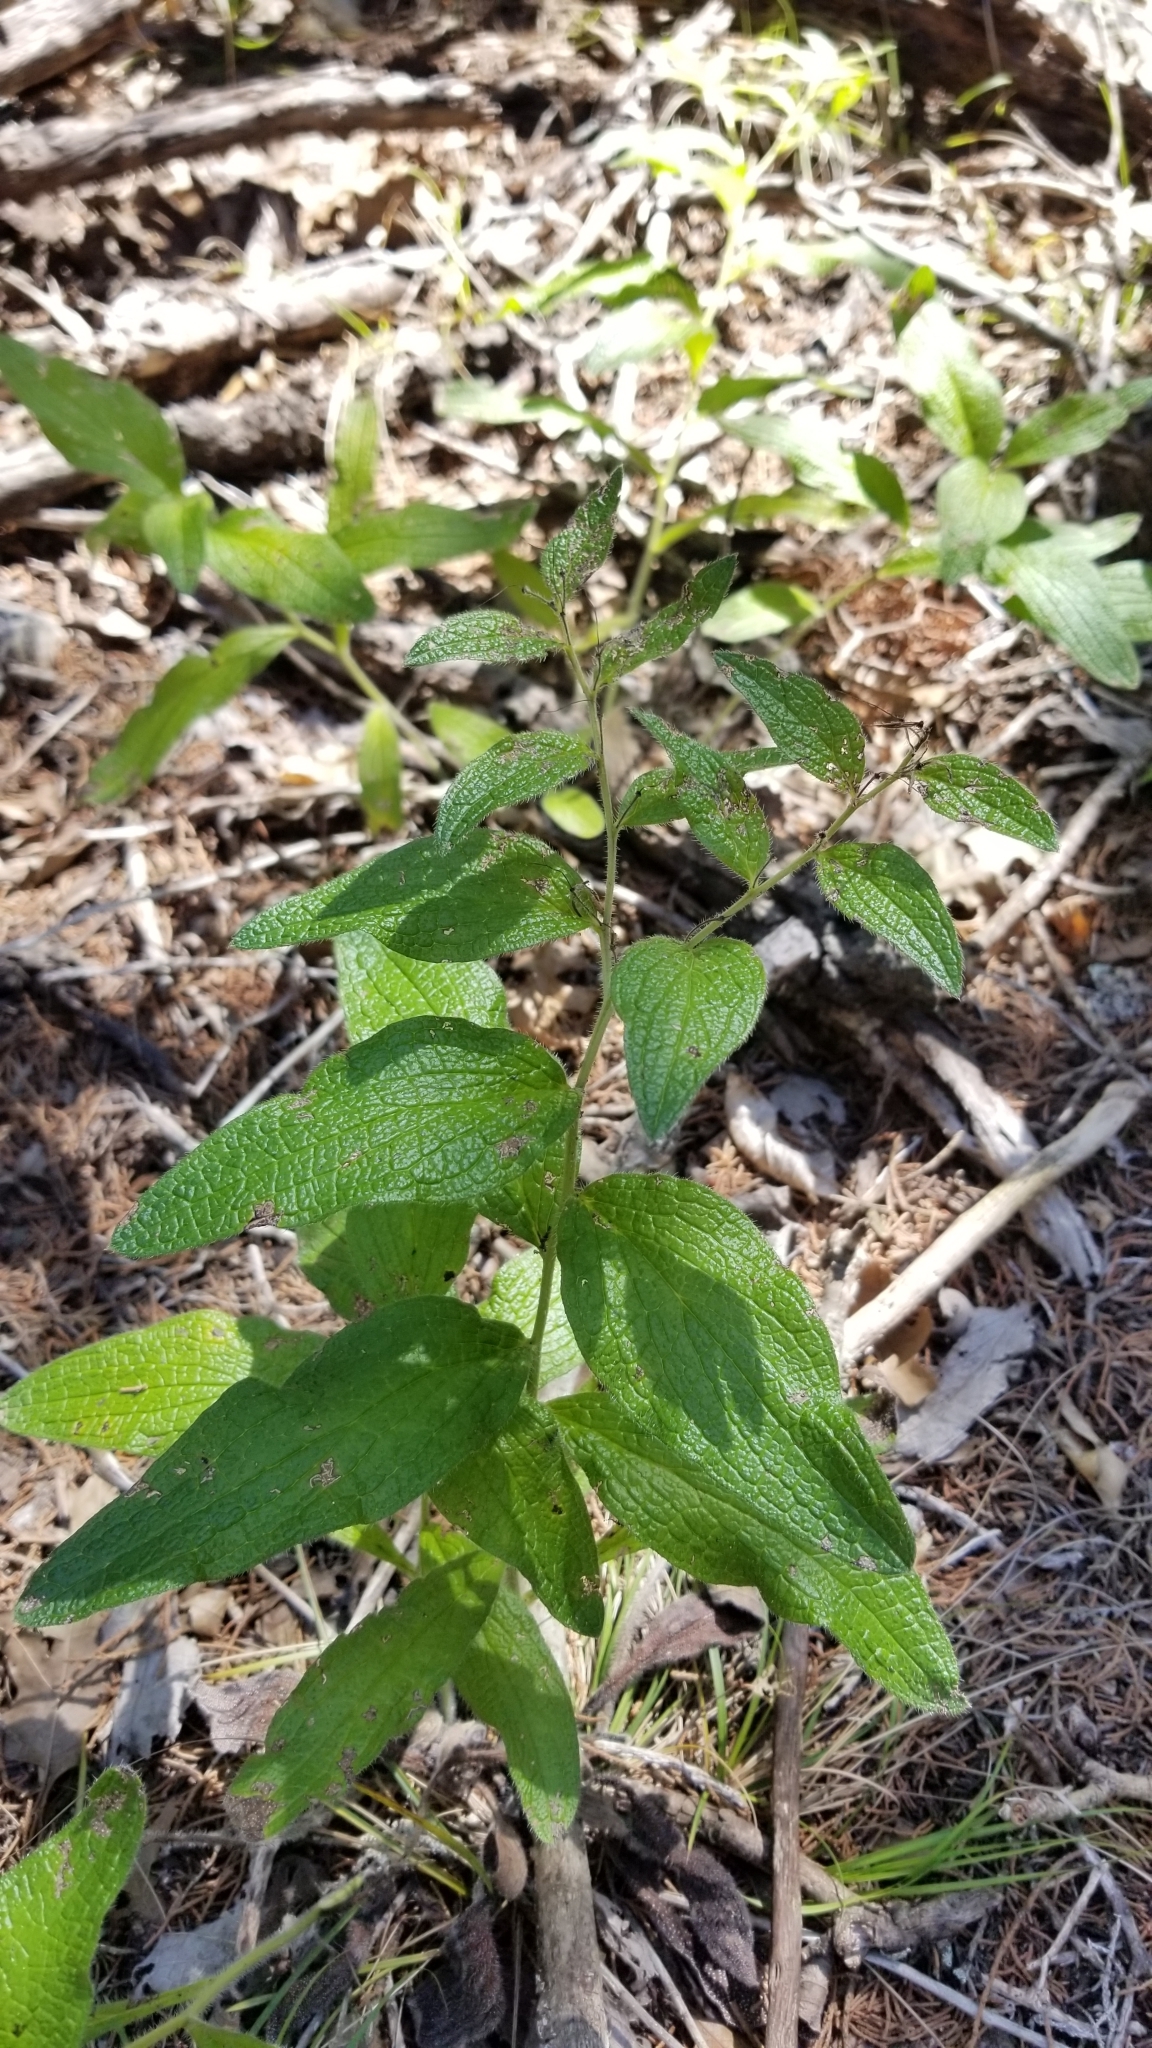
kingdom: Plantae
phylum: Tracheophyta
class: Magnoliopsida
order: Boraginales
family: Boraginaceae
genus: Lithospermum
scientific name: Lithospermum helleri
